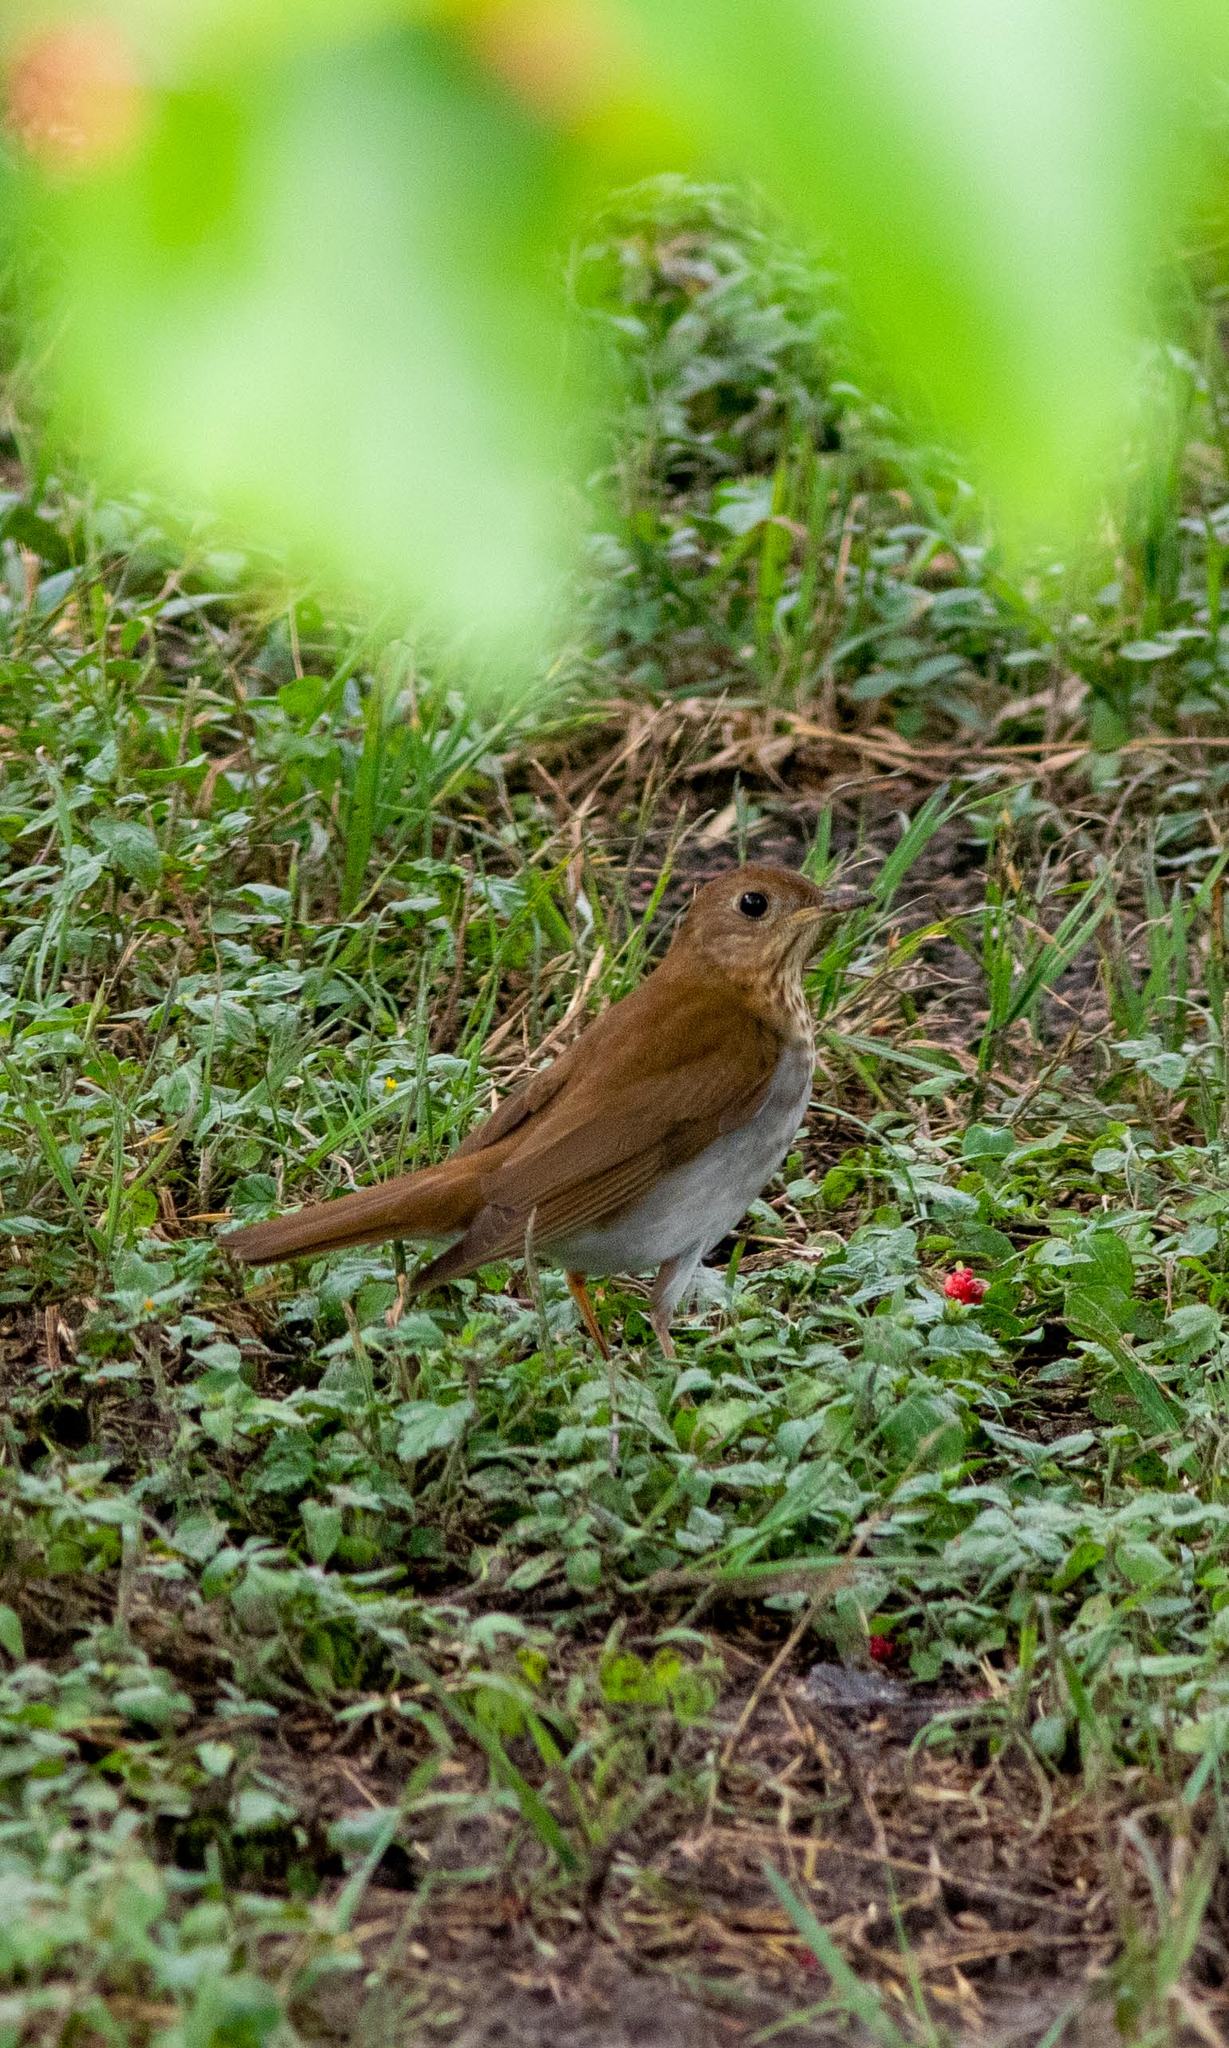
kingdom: Animalia
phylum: Chordata
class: Aves
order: Passeriformes
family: Turdidae
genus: Catharus
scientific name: Catharus fuscescens
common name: Veery
